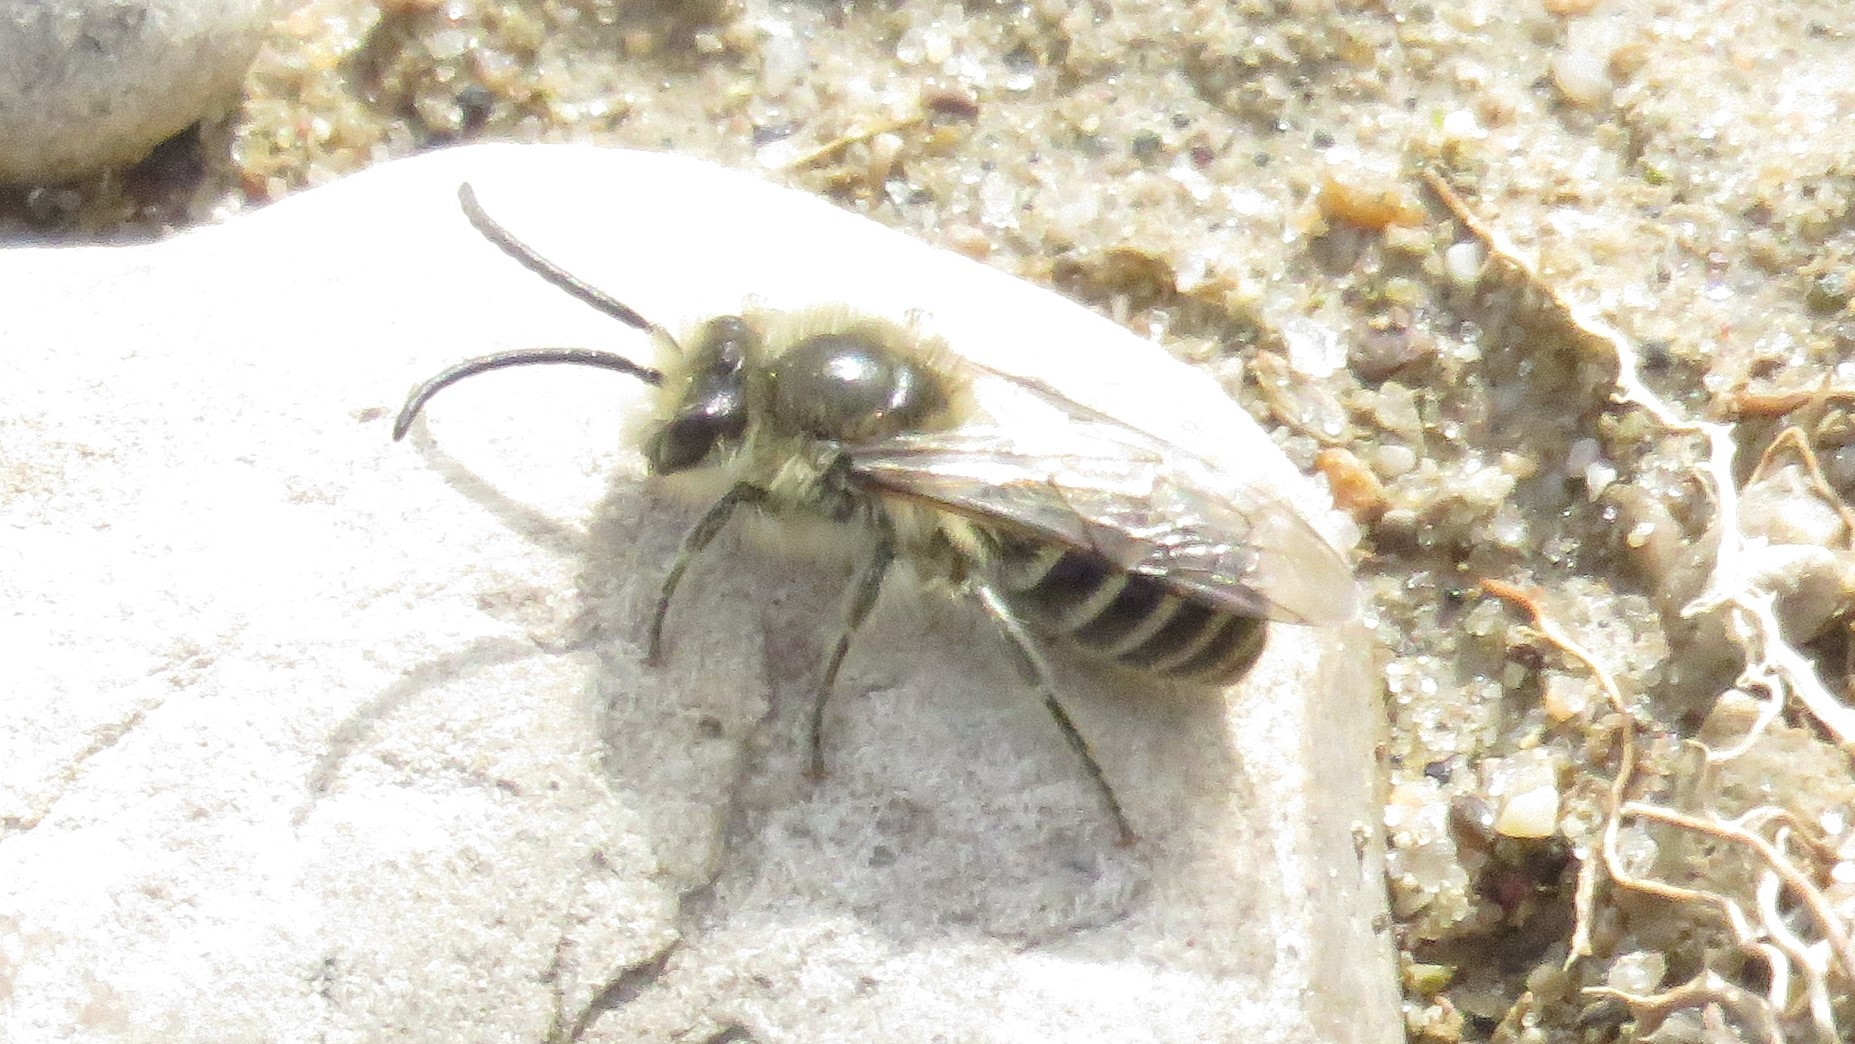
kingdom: Animalia
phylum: Arthropoda
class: Insecta
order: Hymenoptera
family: Colletidae
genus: Colletes
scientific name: Colletes inaequalis
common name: Unequal cellophane bee
